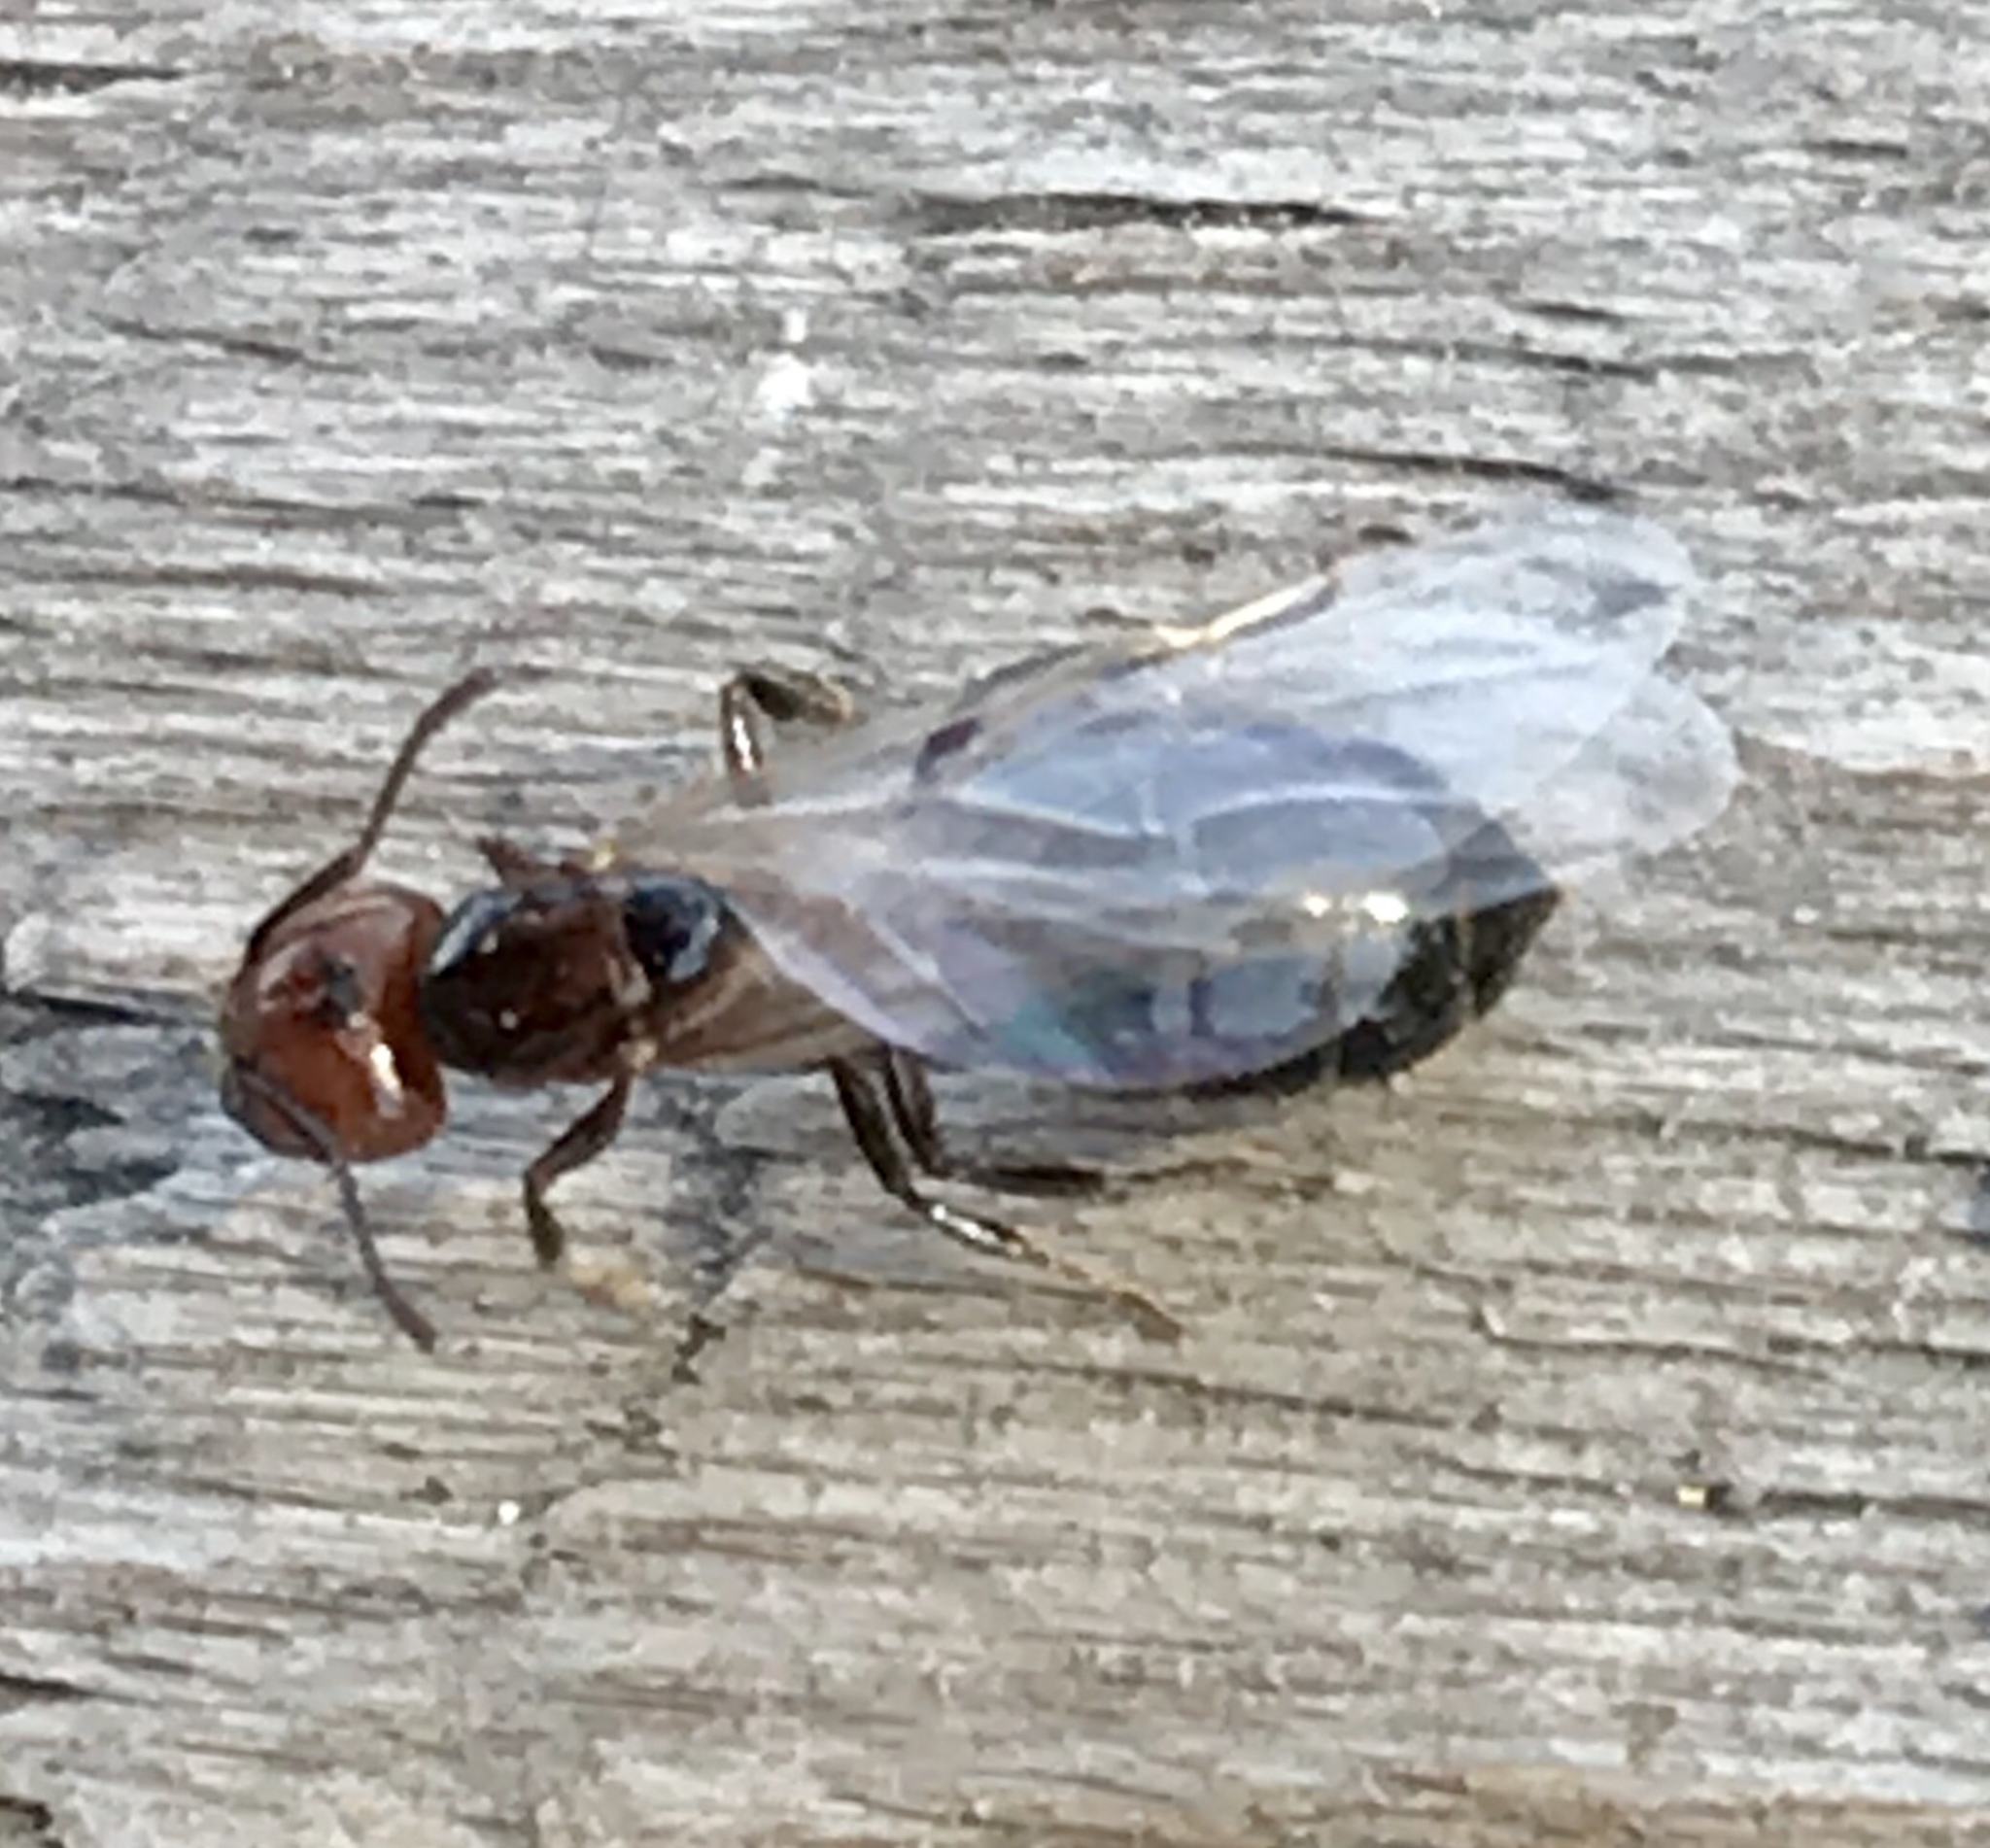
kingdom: Animalia
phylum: Arthropoda
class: Insecta
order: Hymenoptera
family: Formicidae
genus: Crematogaster
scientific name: Crematogaster laeviuscula
